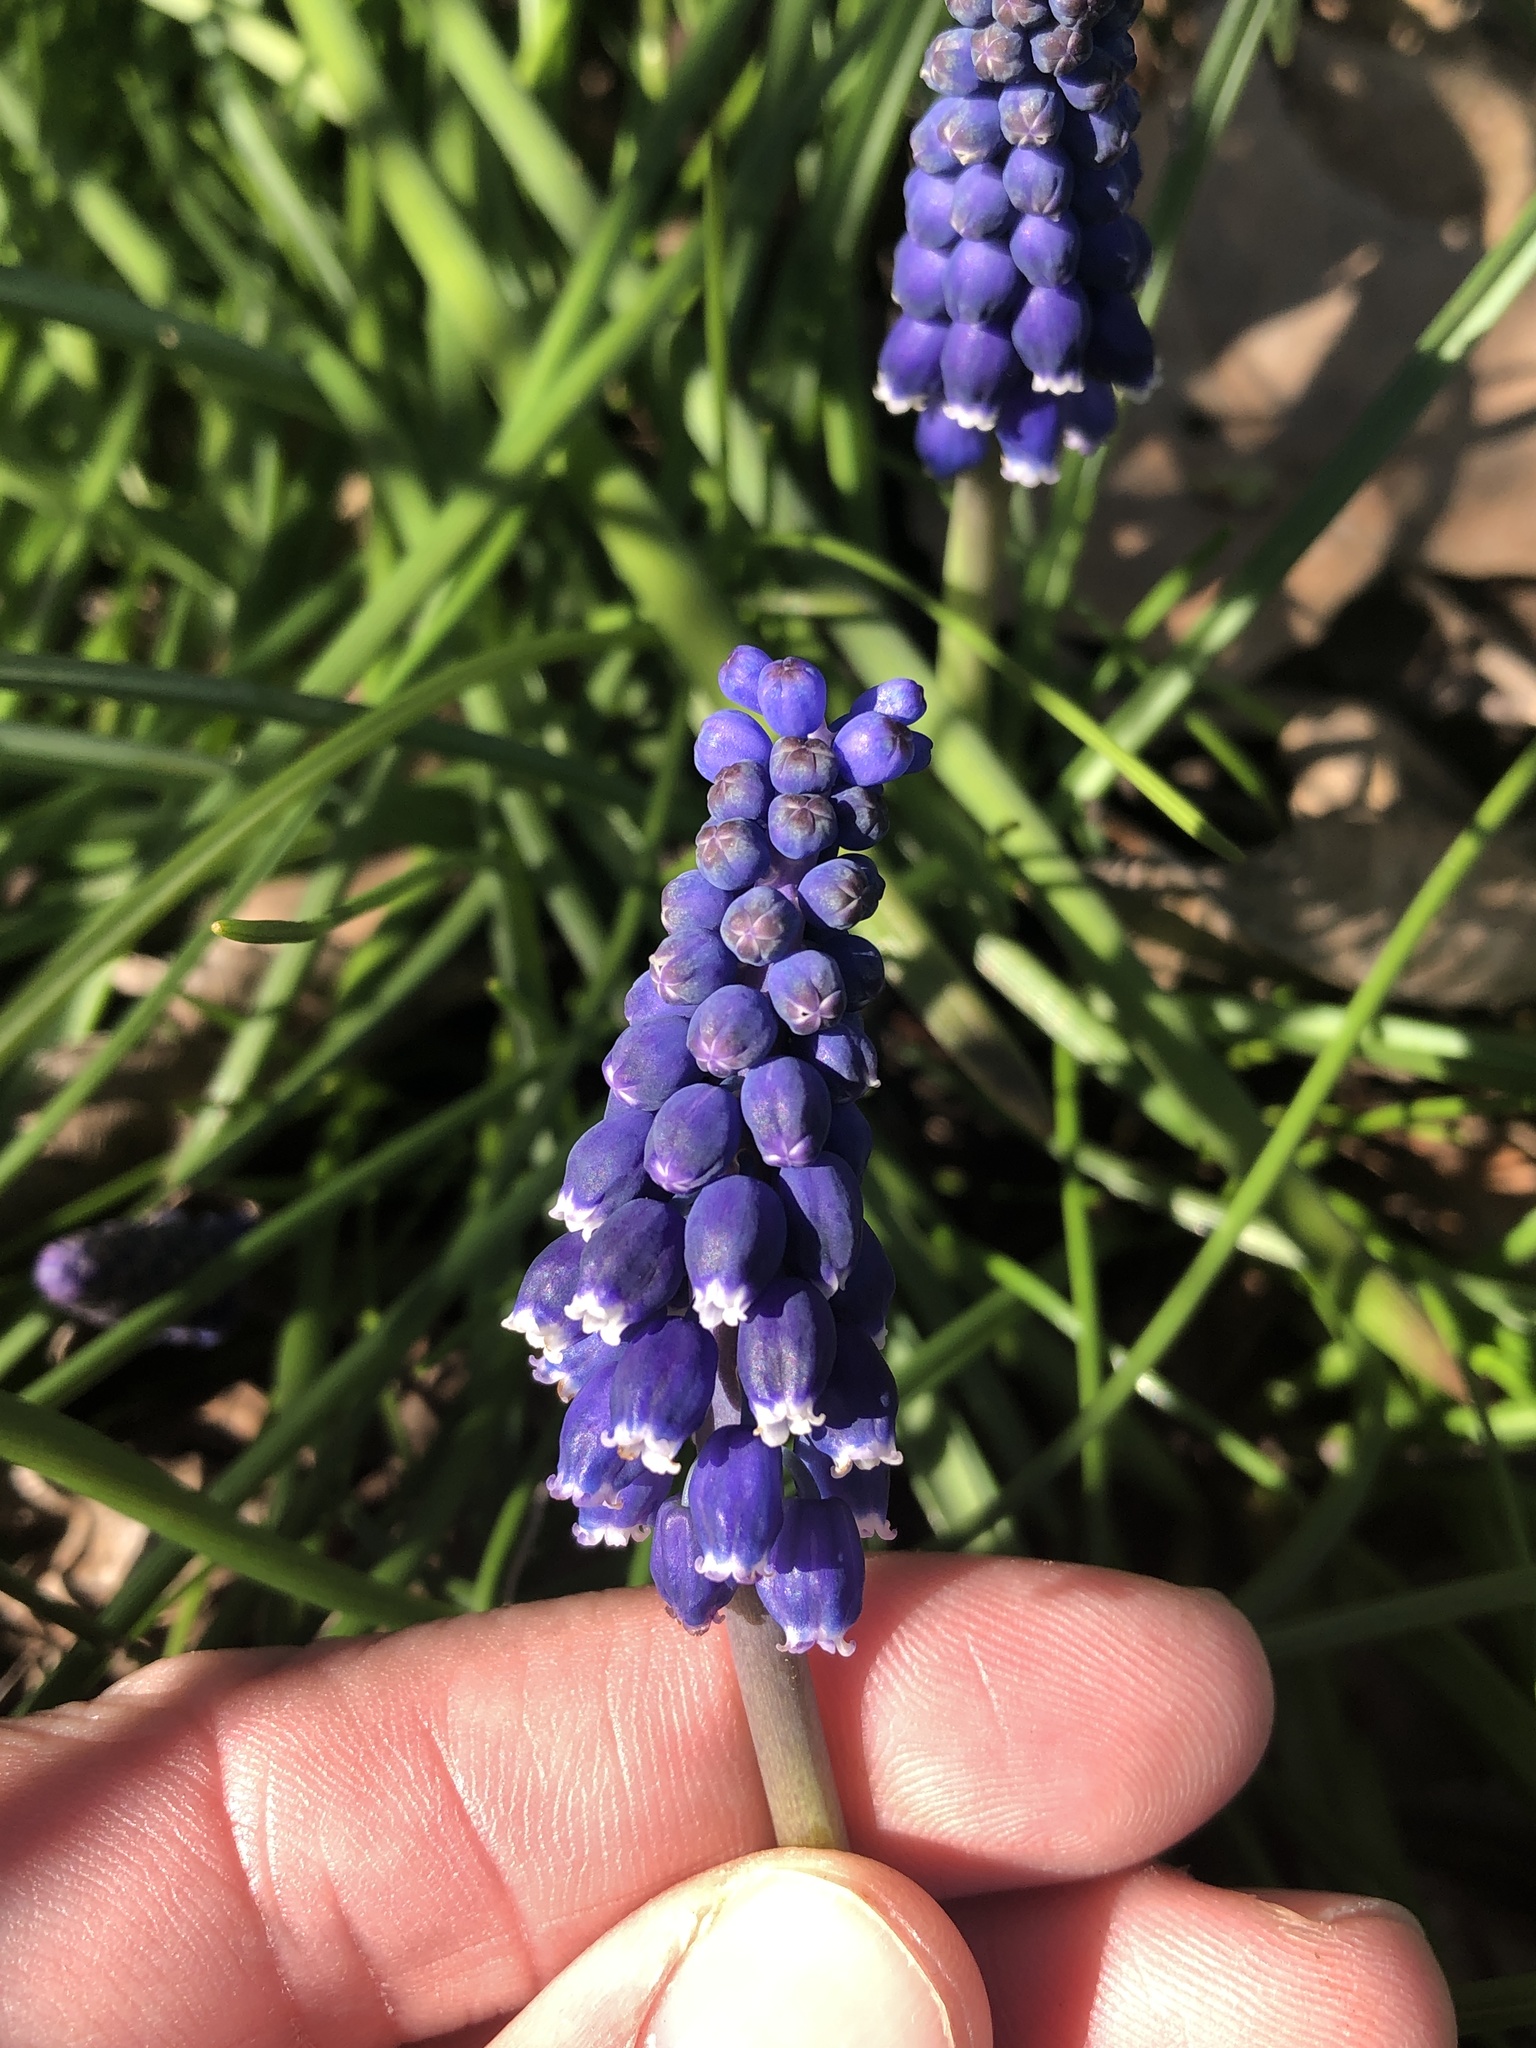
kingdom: Plantae
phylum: Tracheophyta
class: Liliopsida
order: Asparagales
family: Asparagaceae
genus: Muscari
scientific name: Muscari neglectum
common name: Grape-hyacinth
